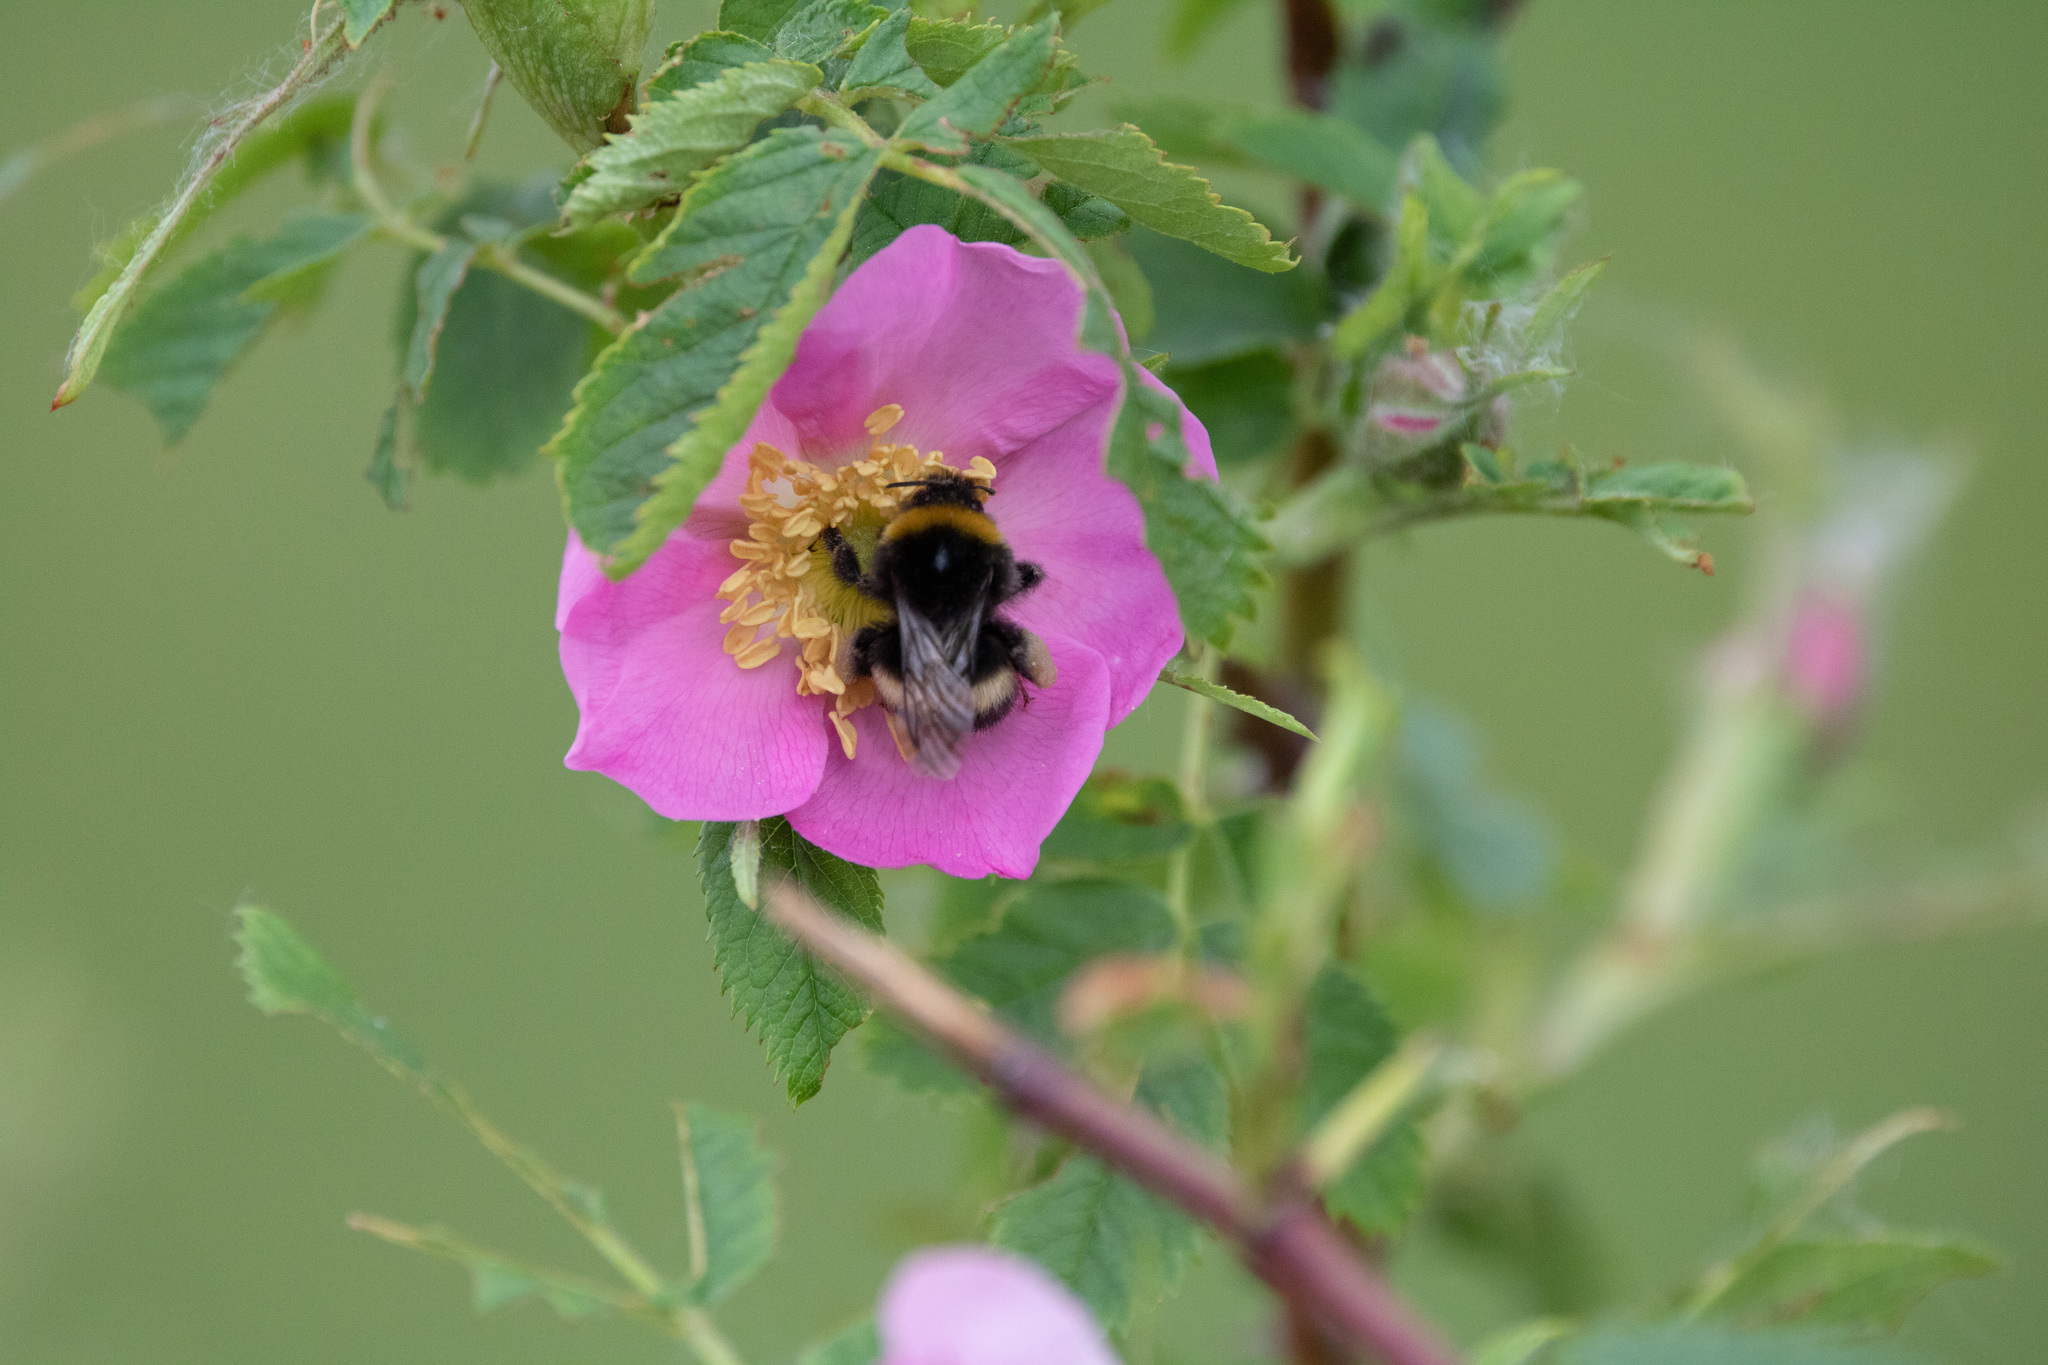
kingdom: Animalia
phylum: Arthropoda
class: Insecta
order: Hymenoptera
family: Apidae
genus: Bombus
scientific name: Bombus
